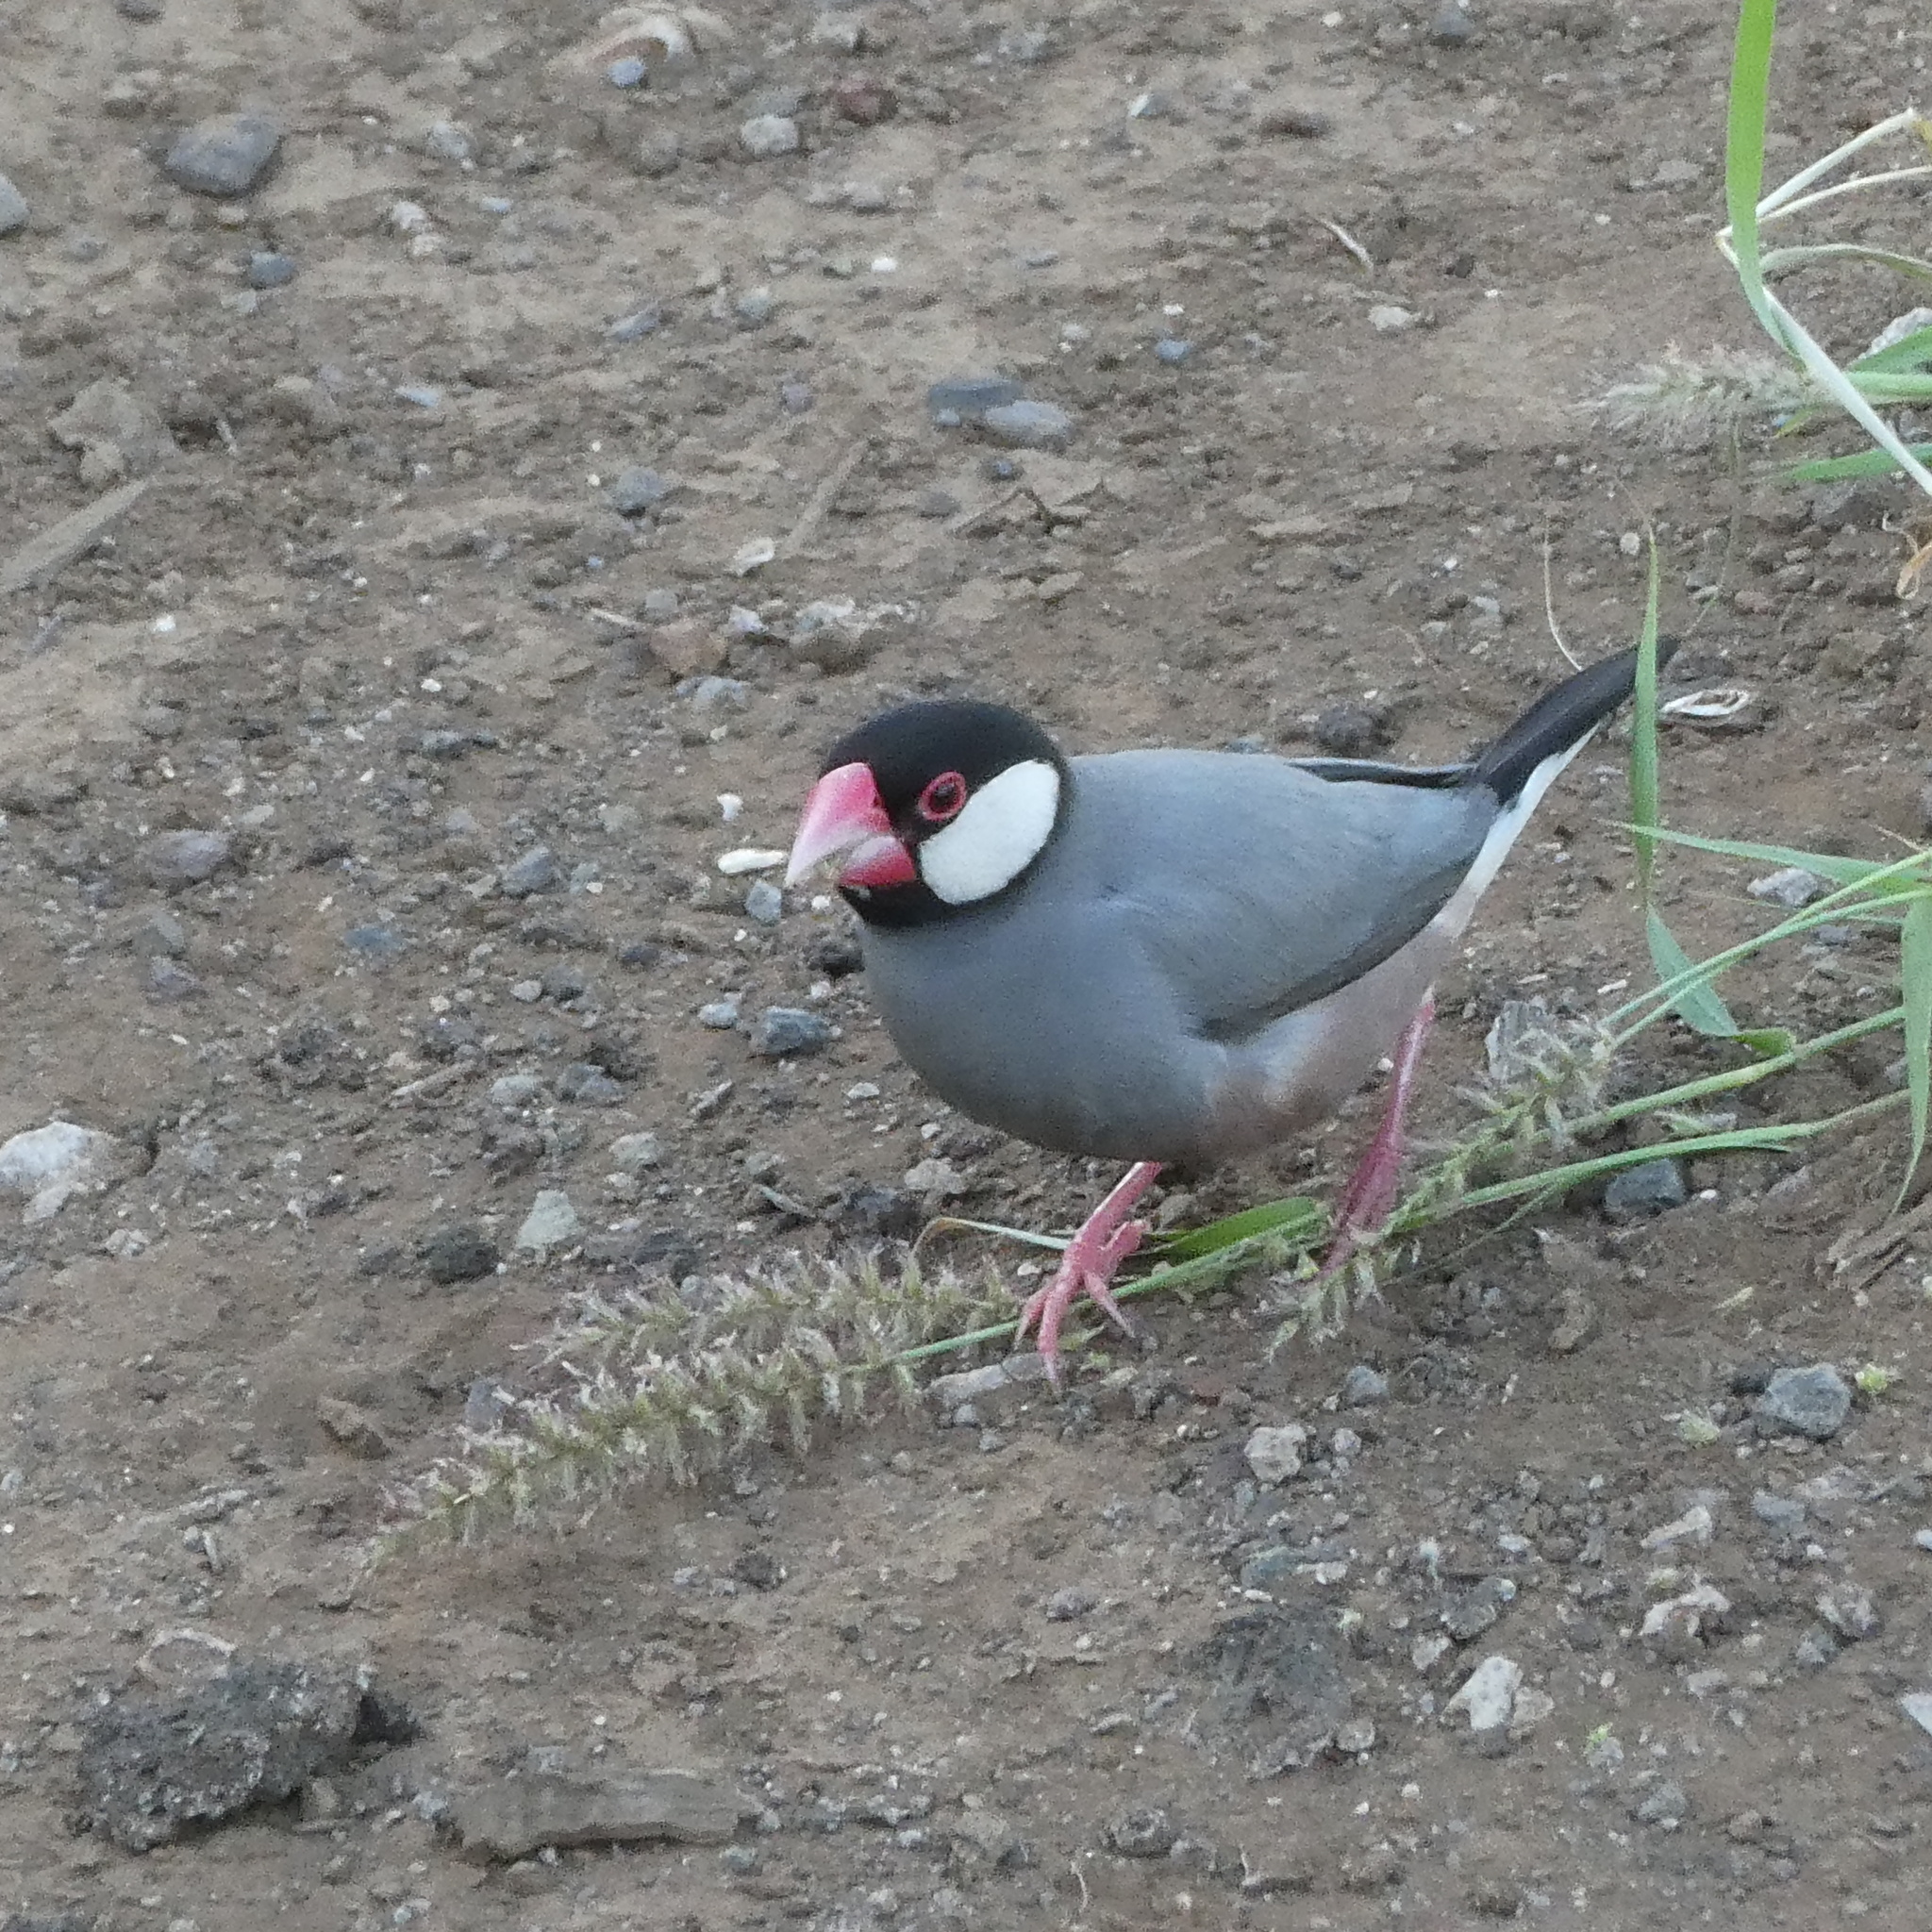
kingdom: Animalia
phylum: Chordata
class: Aves
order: Passeriformes
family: Estrildidae
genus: Lonchura
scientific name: Lonchura oryzivora
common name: Java sparrow
